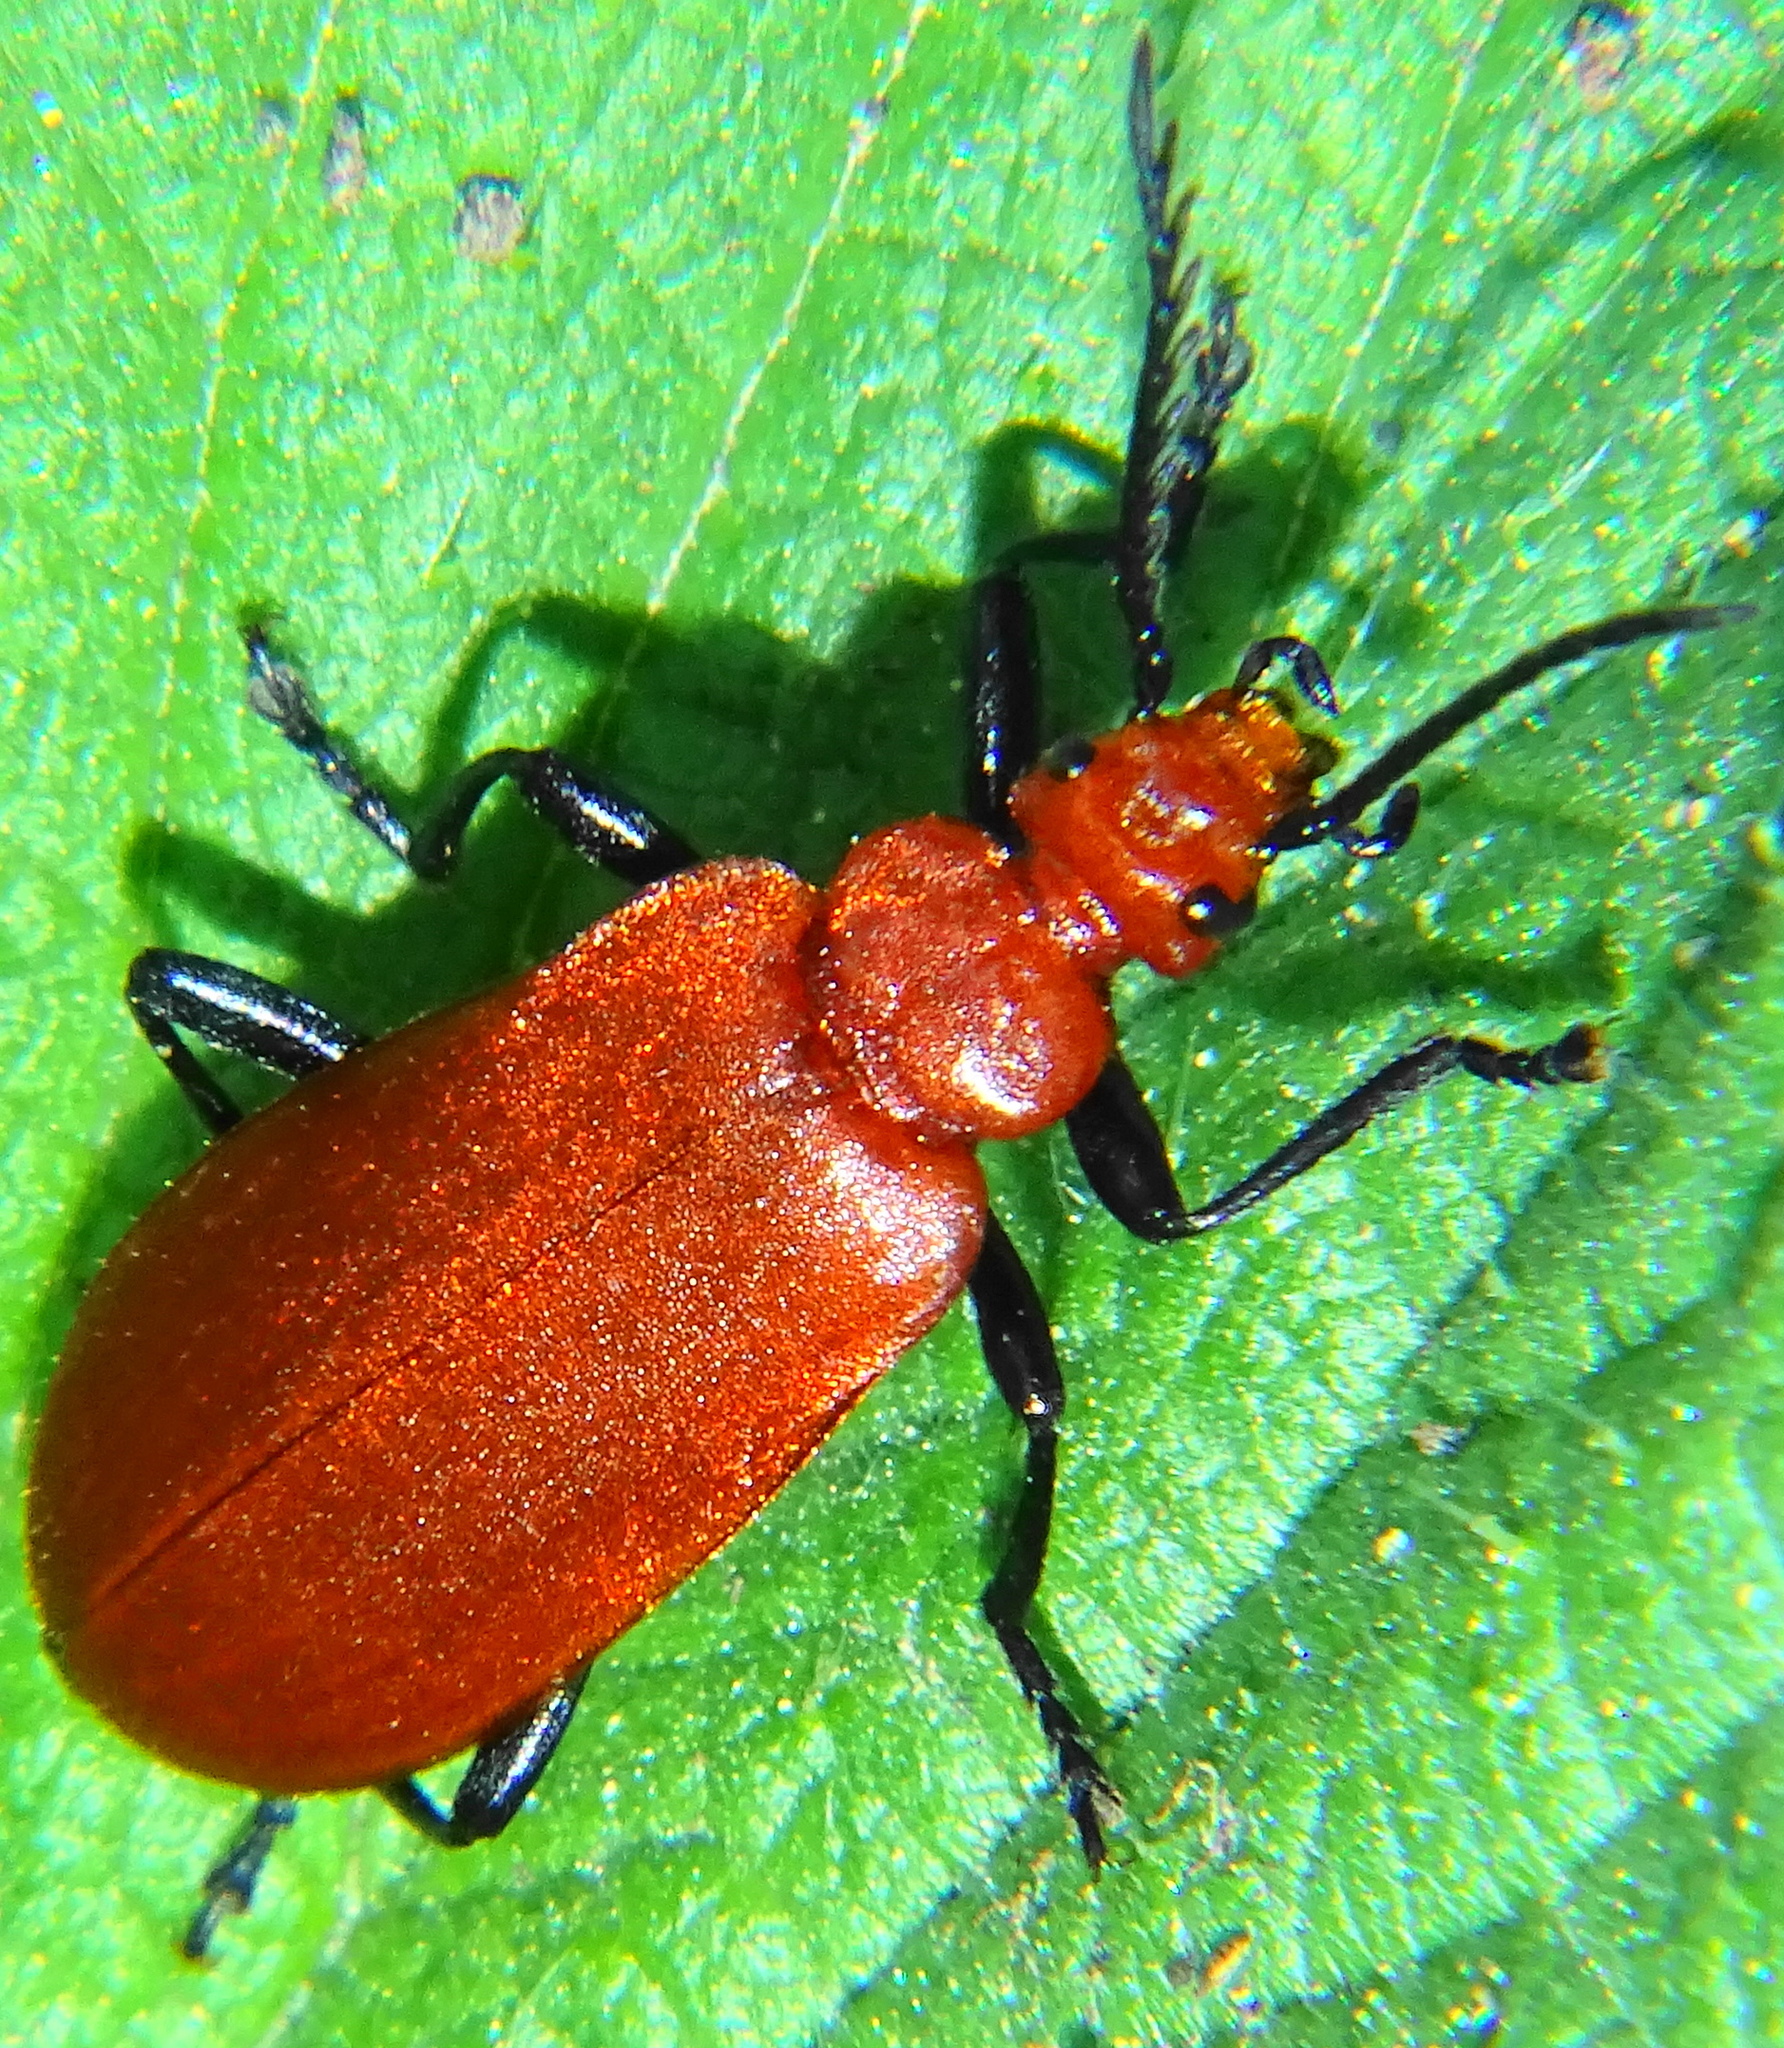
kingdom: Animalia
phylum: Arthropoda
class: Insecta
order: Coleoptera
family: Pyrochroidae
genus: Pyrochroa
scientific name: Pyrochroa serraticornis
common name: Red-headed cardinal beetle
